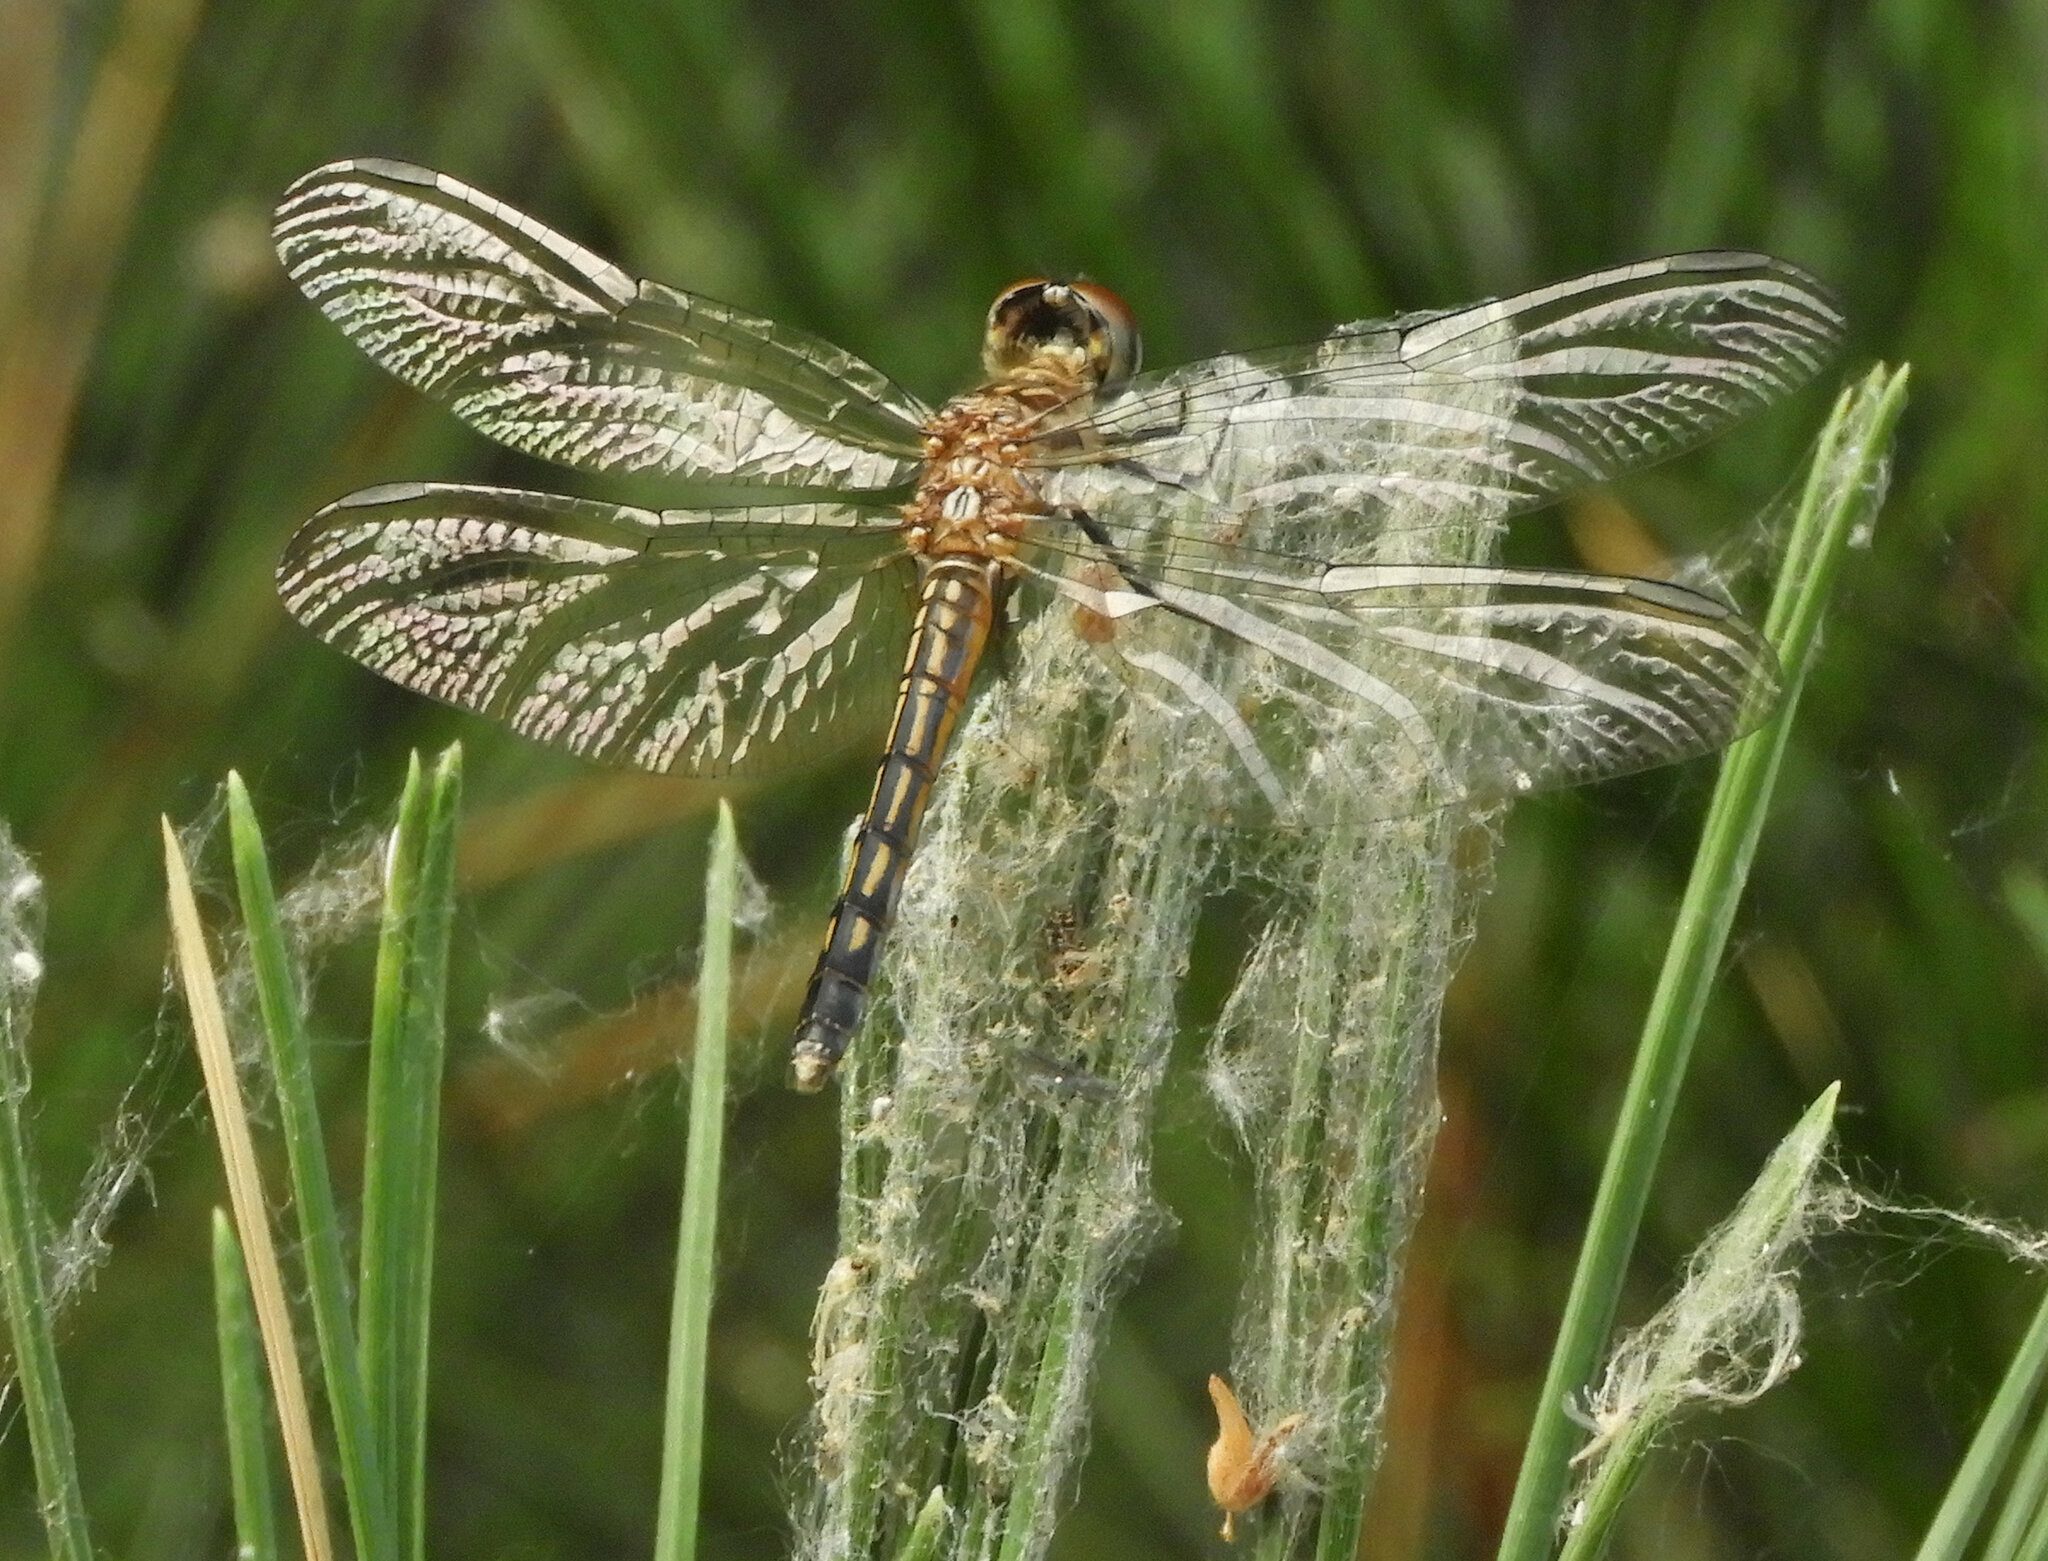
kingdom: Animalia
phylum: Arthropoda
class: Insecta
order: Odonata
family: Libellulidae
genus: Pachydiplax
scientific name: Pachydiplax longipennis
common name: Blue dasher
